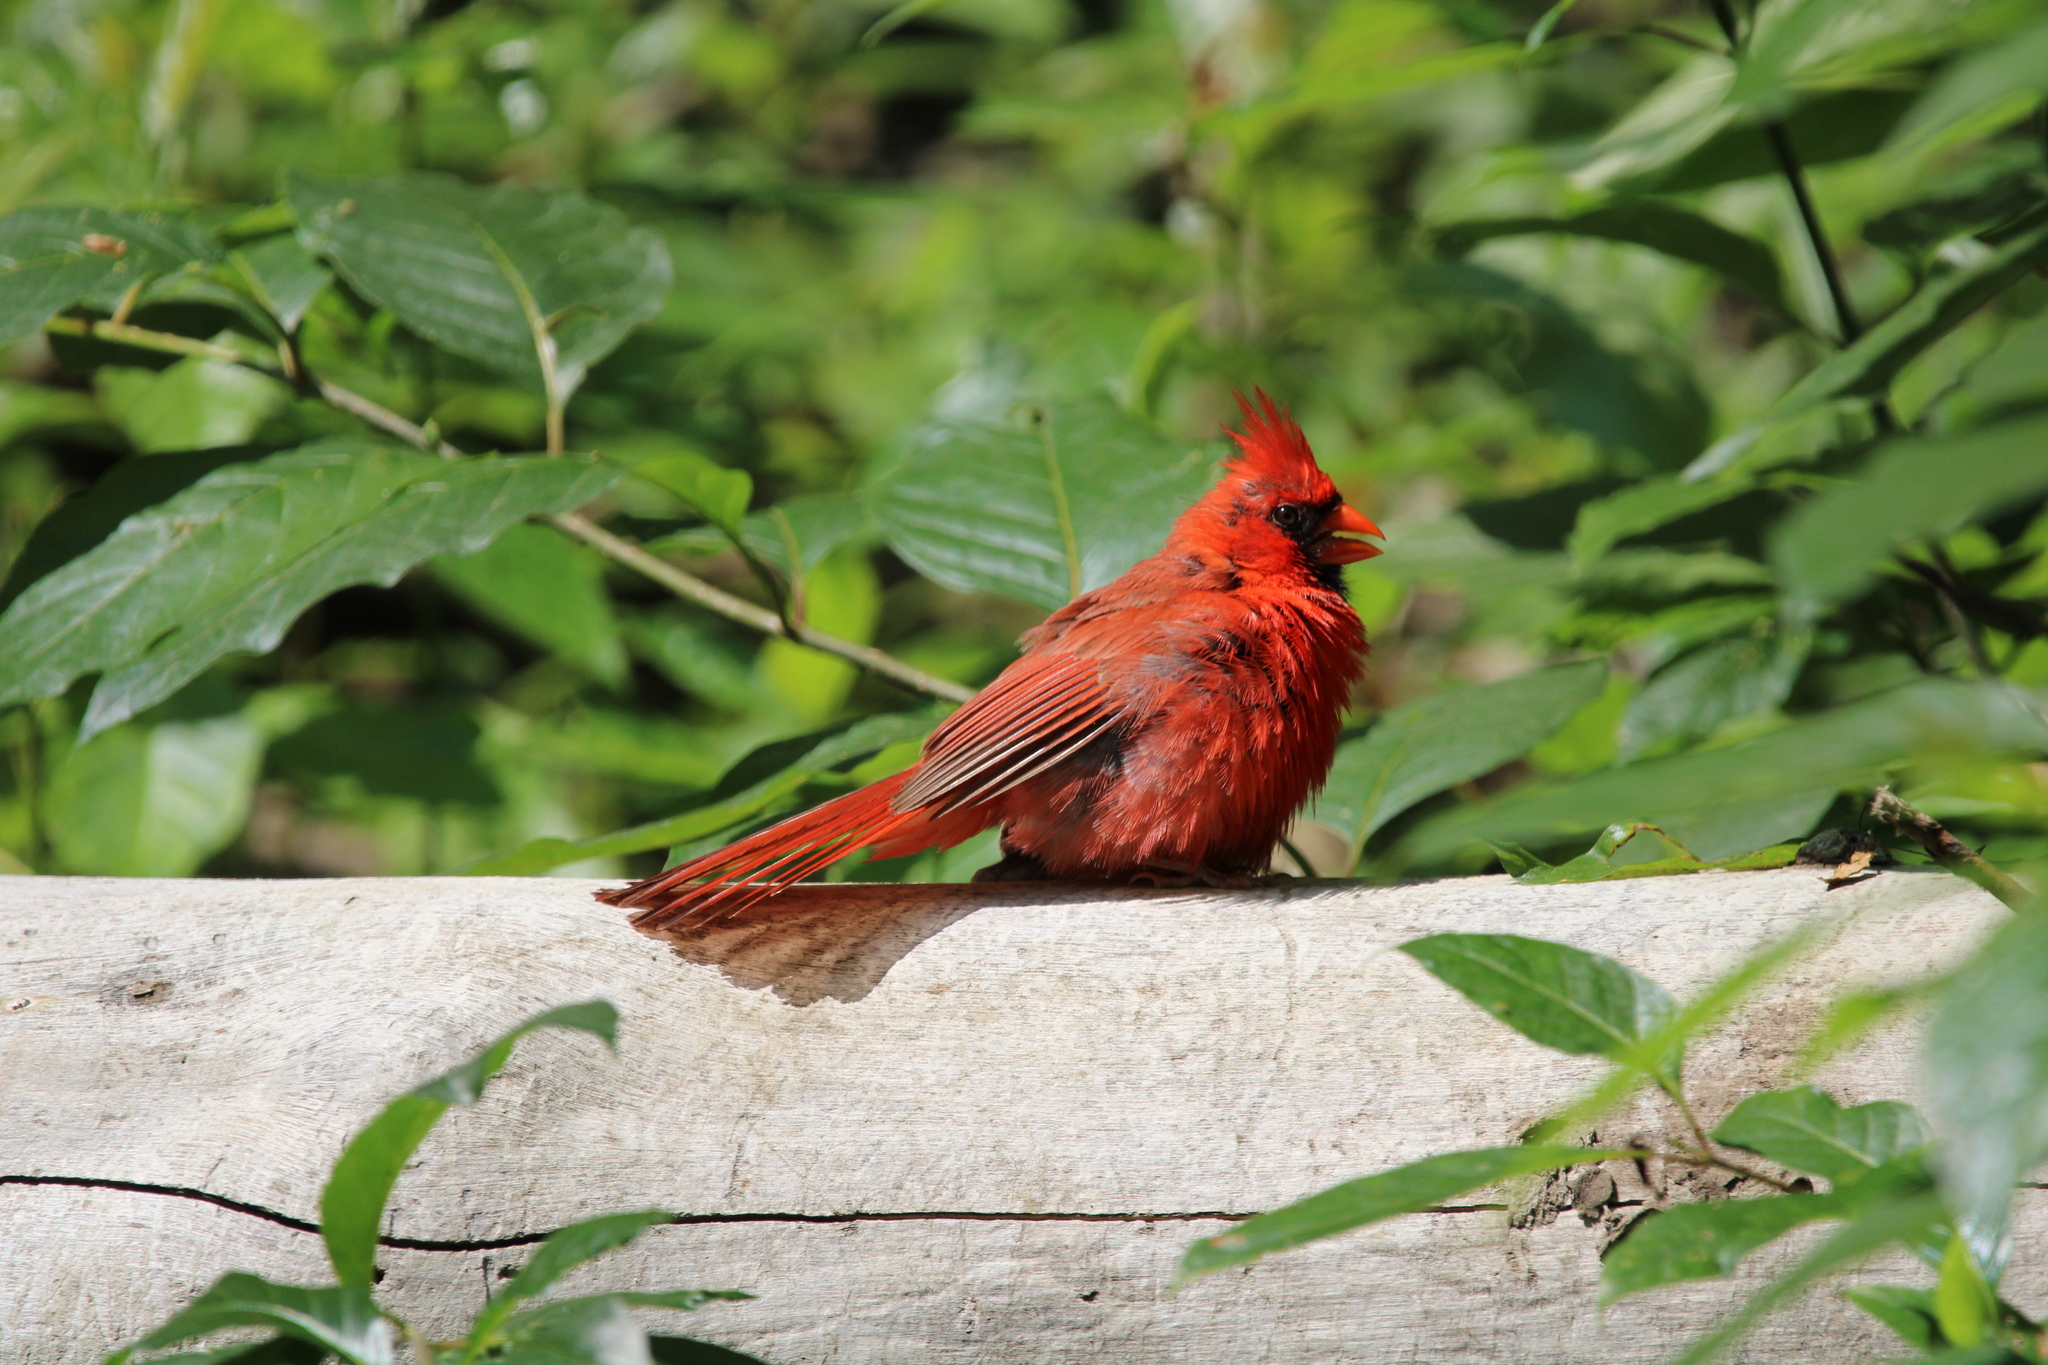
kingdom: Animalia
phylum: Chordata
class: Aves
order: Passeriformes
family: Cardinalidae
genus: Cardinalis
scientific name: Cardinalis cardinalis
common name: Northern cardinal
